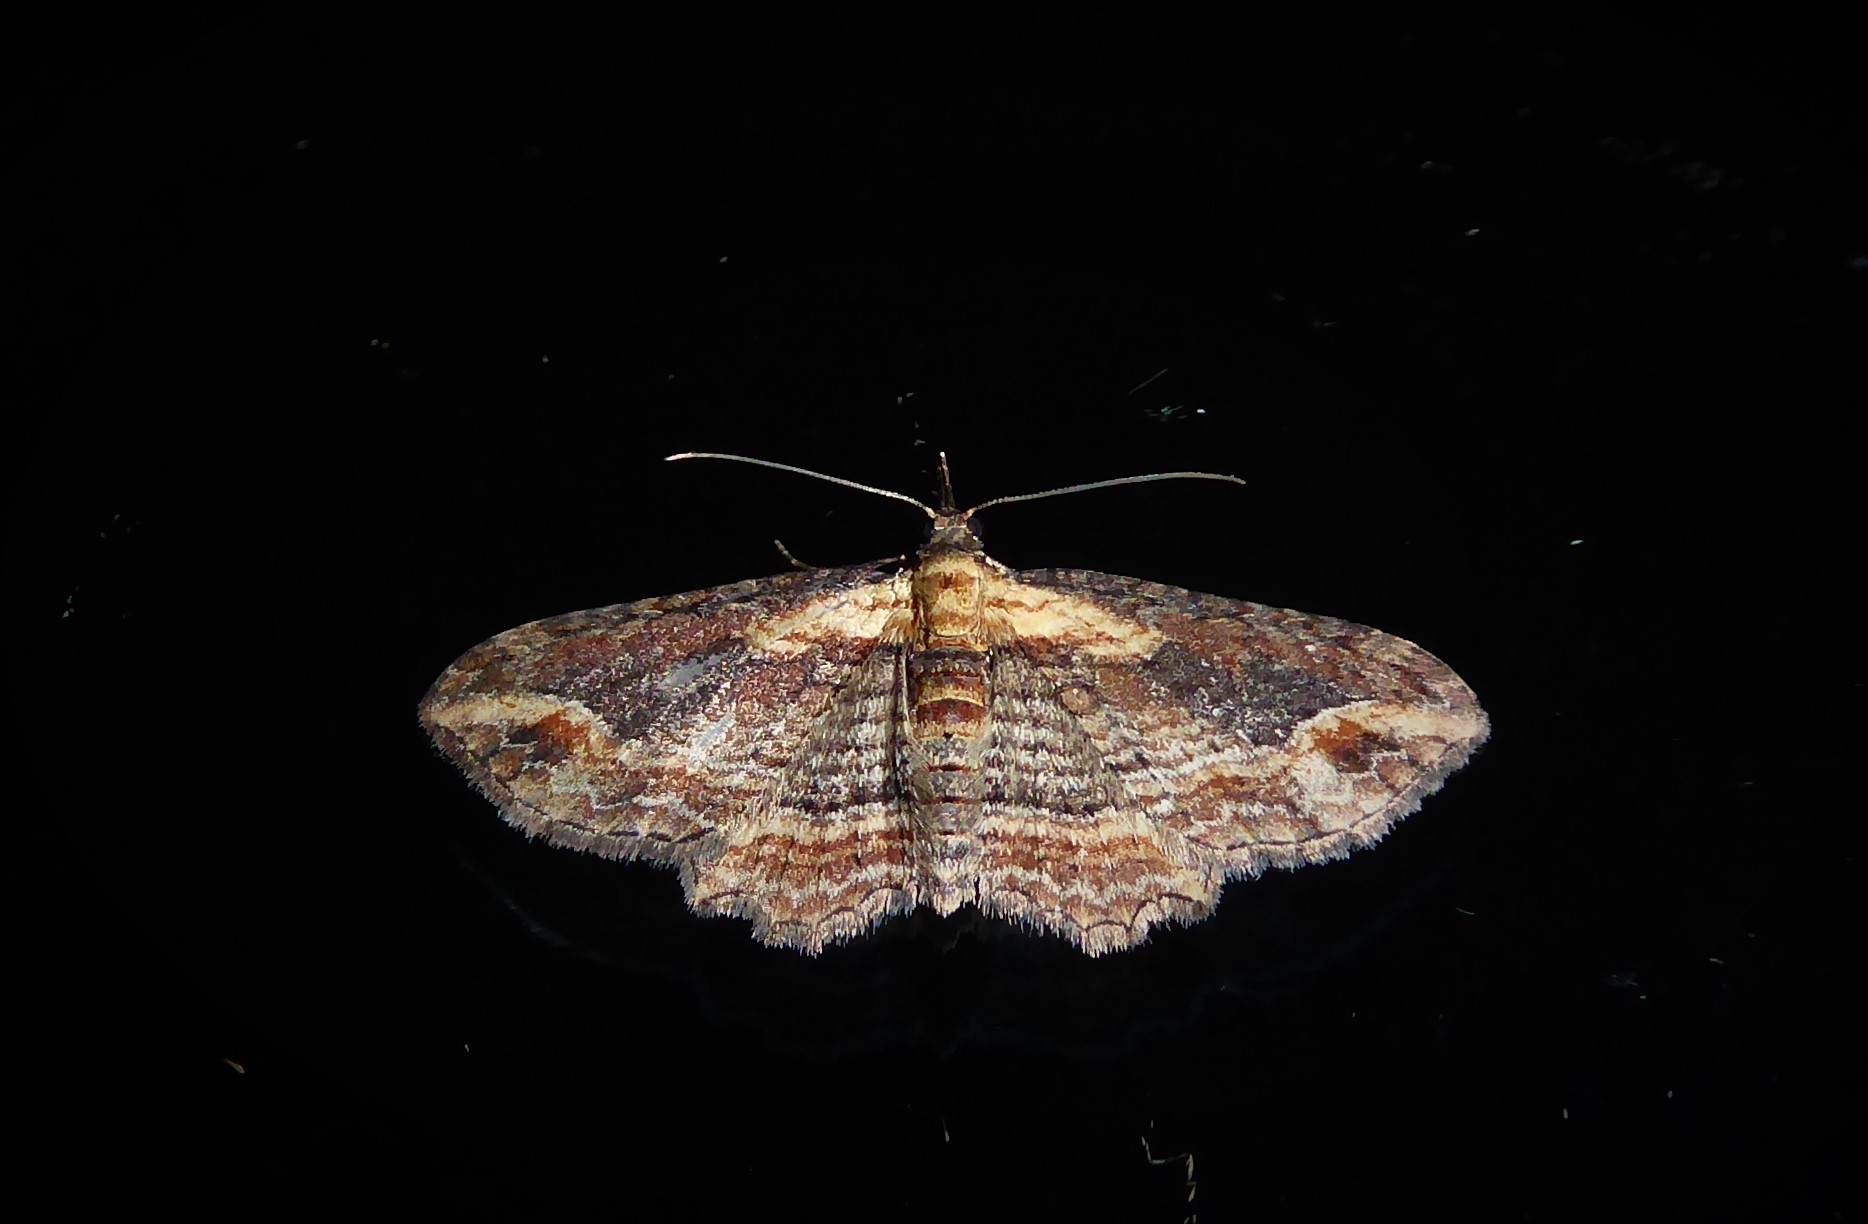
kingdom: Animalia
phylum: Arthropoda
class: Insecta
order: Lepidoptera
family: Geometridae
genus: Chloroclystis
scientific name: Chloroclystis filata
